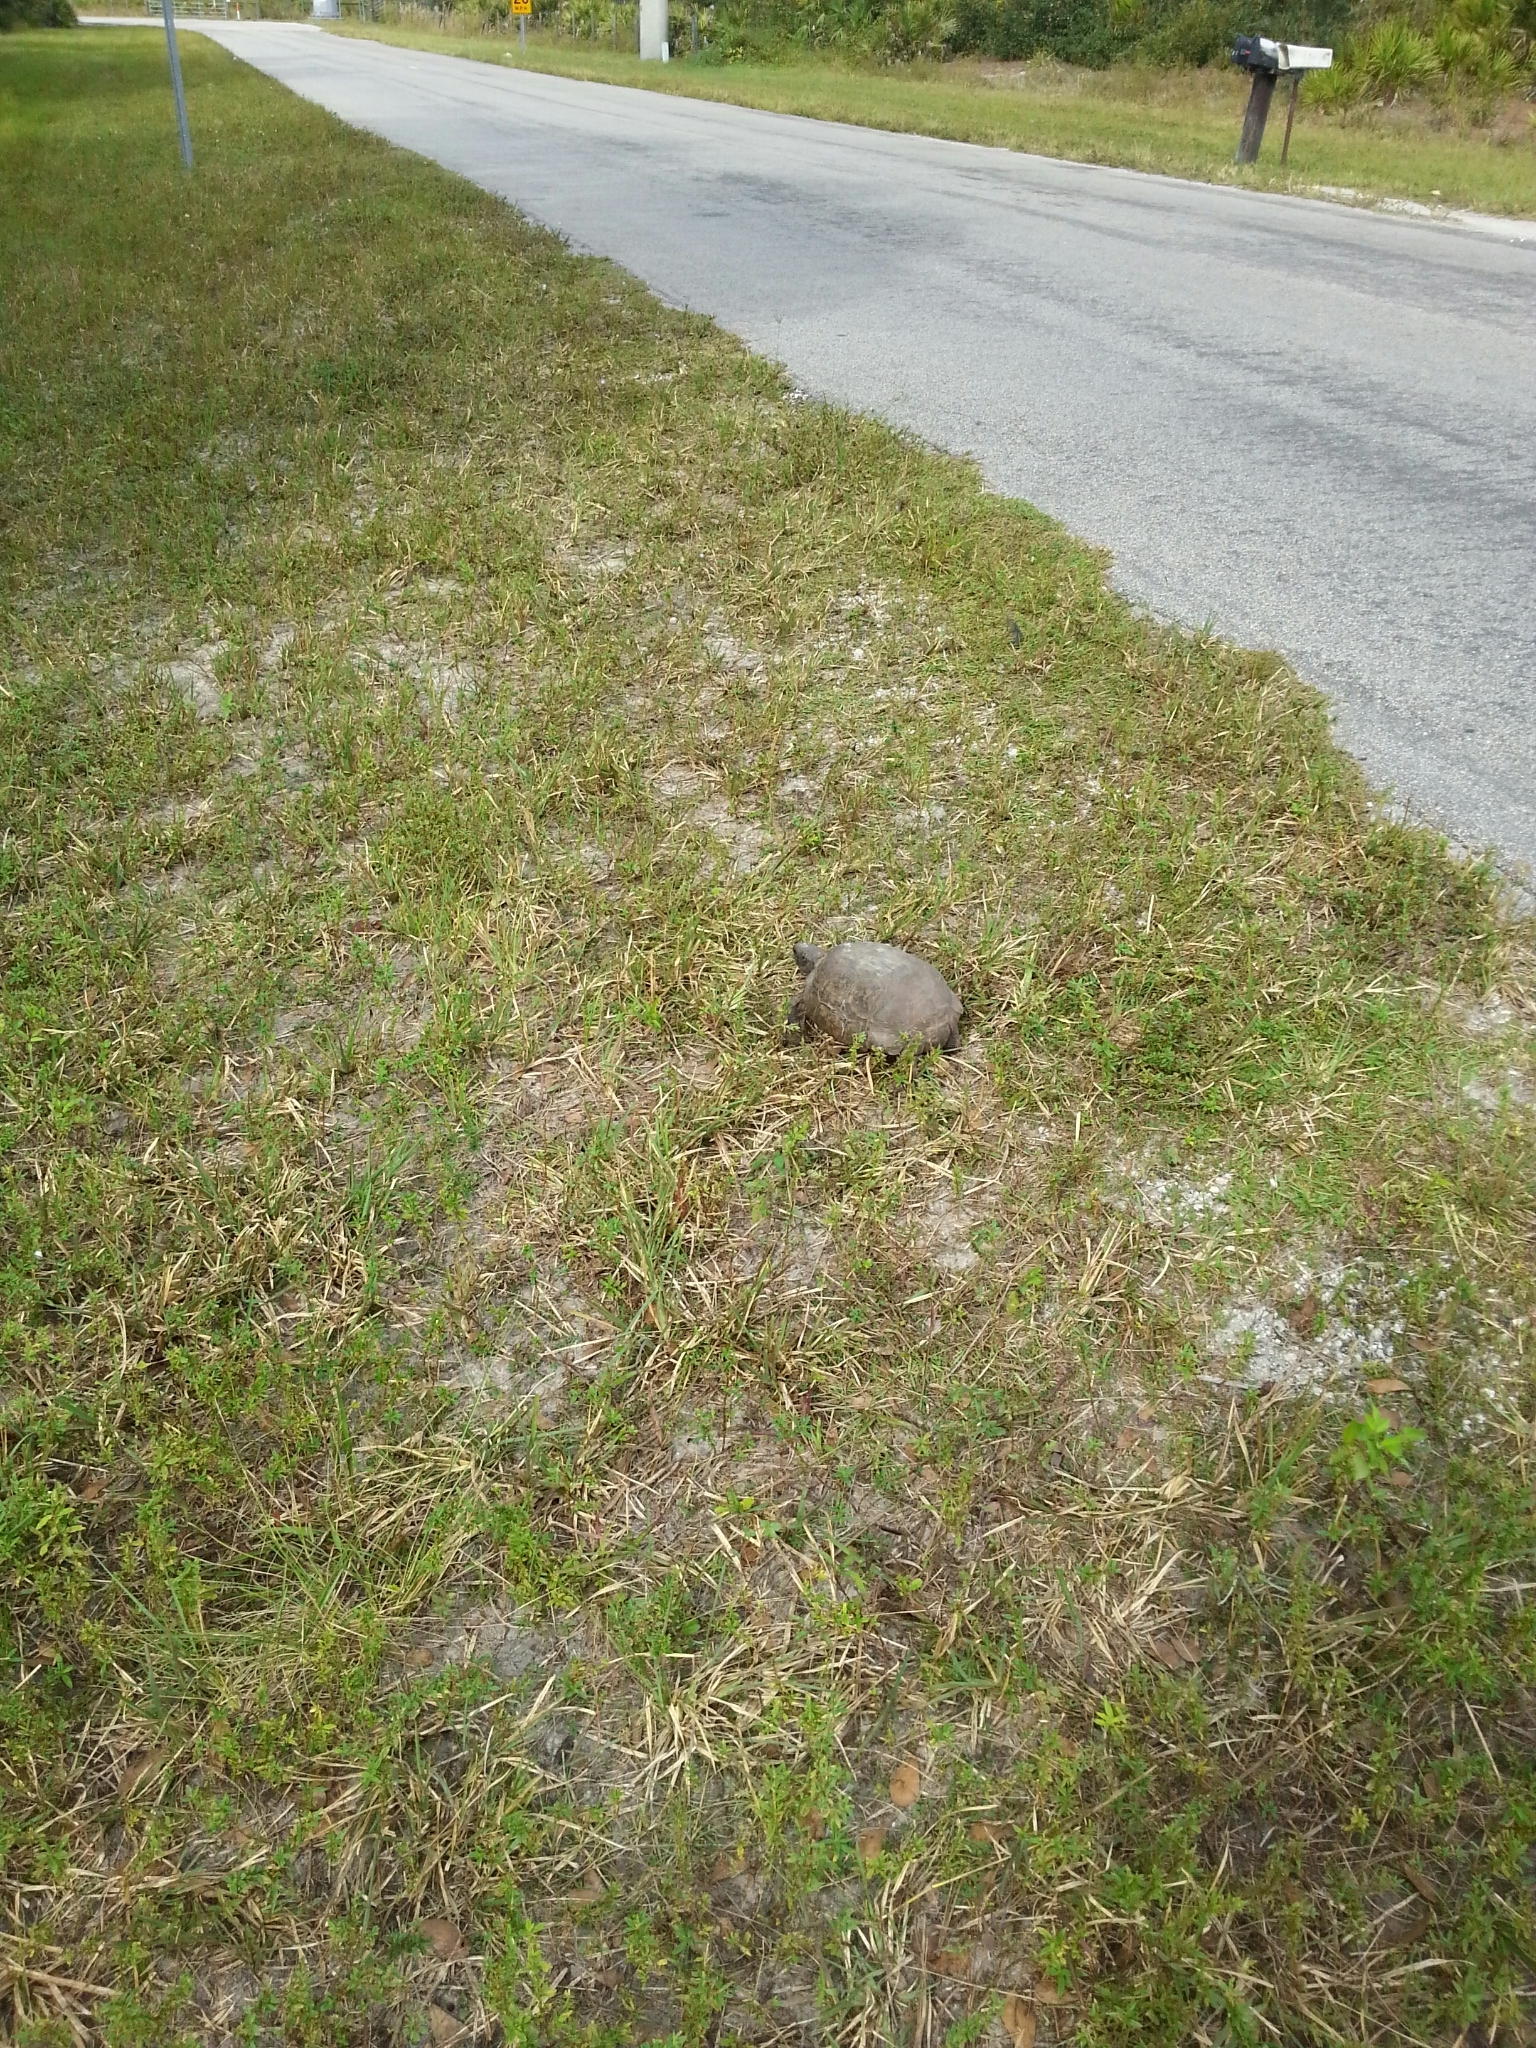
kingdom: Animalia
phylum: Chordata
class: Testudines
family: Testudinidae
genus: Gopherus
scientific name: Gopherus polyphemus
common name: Florida gopher tortoise
